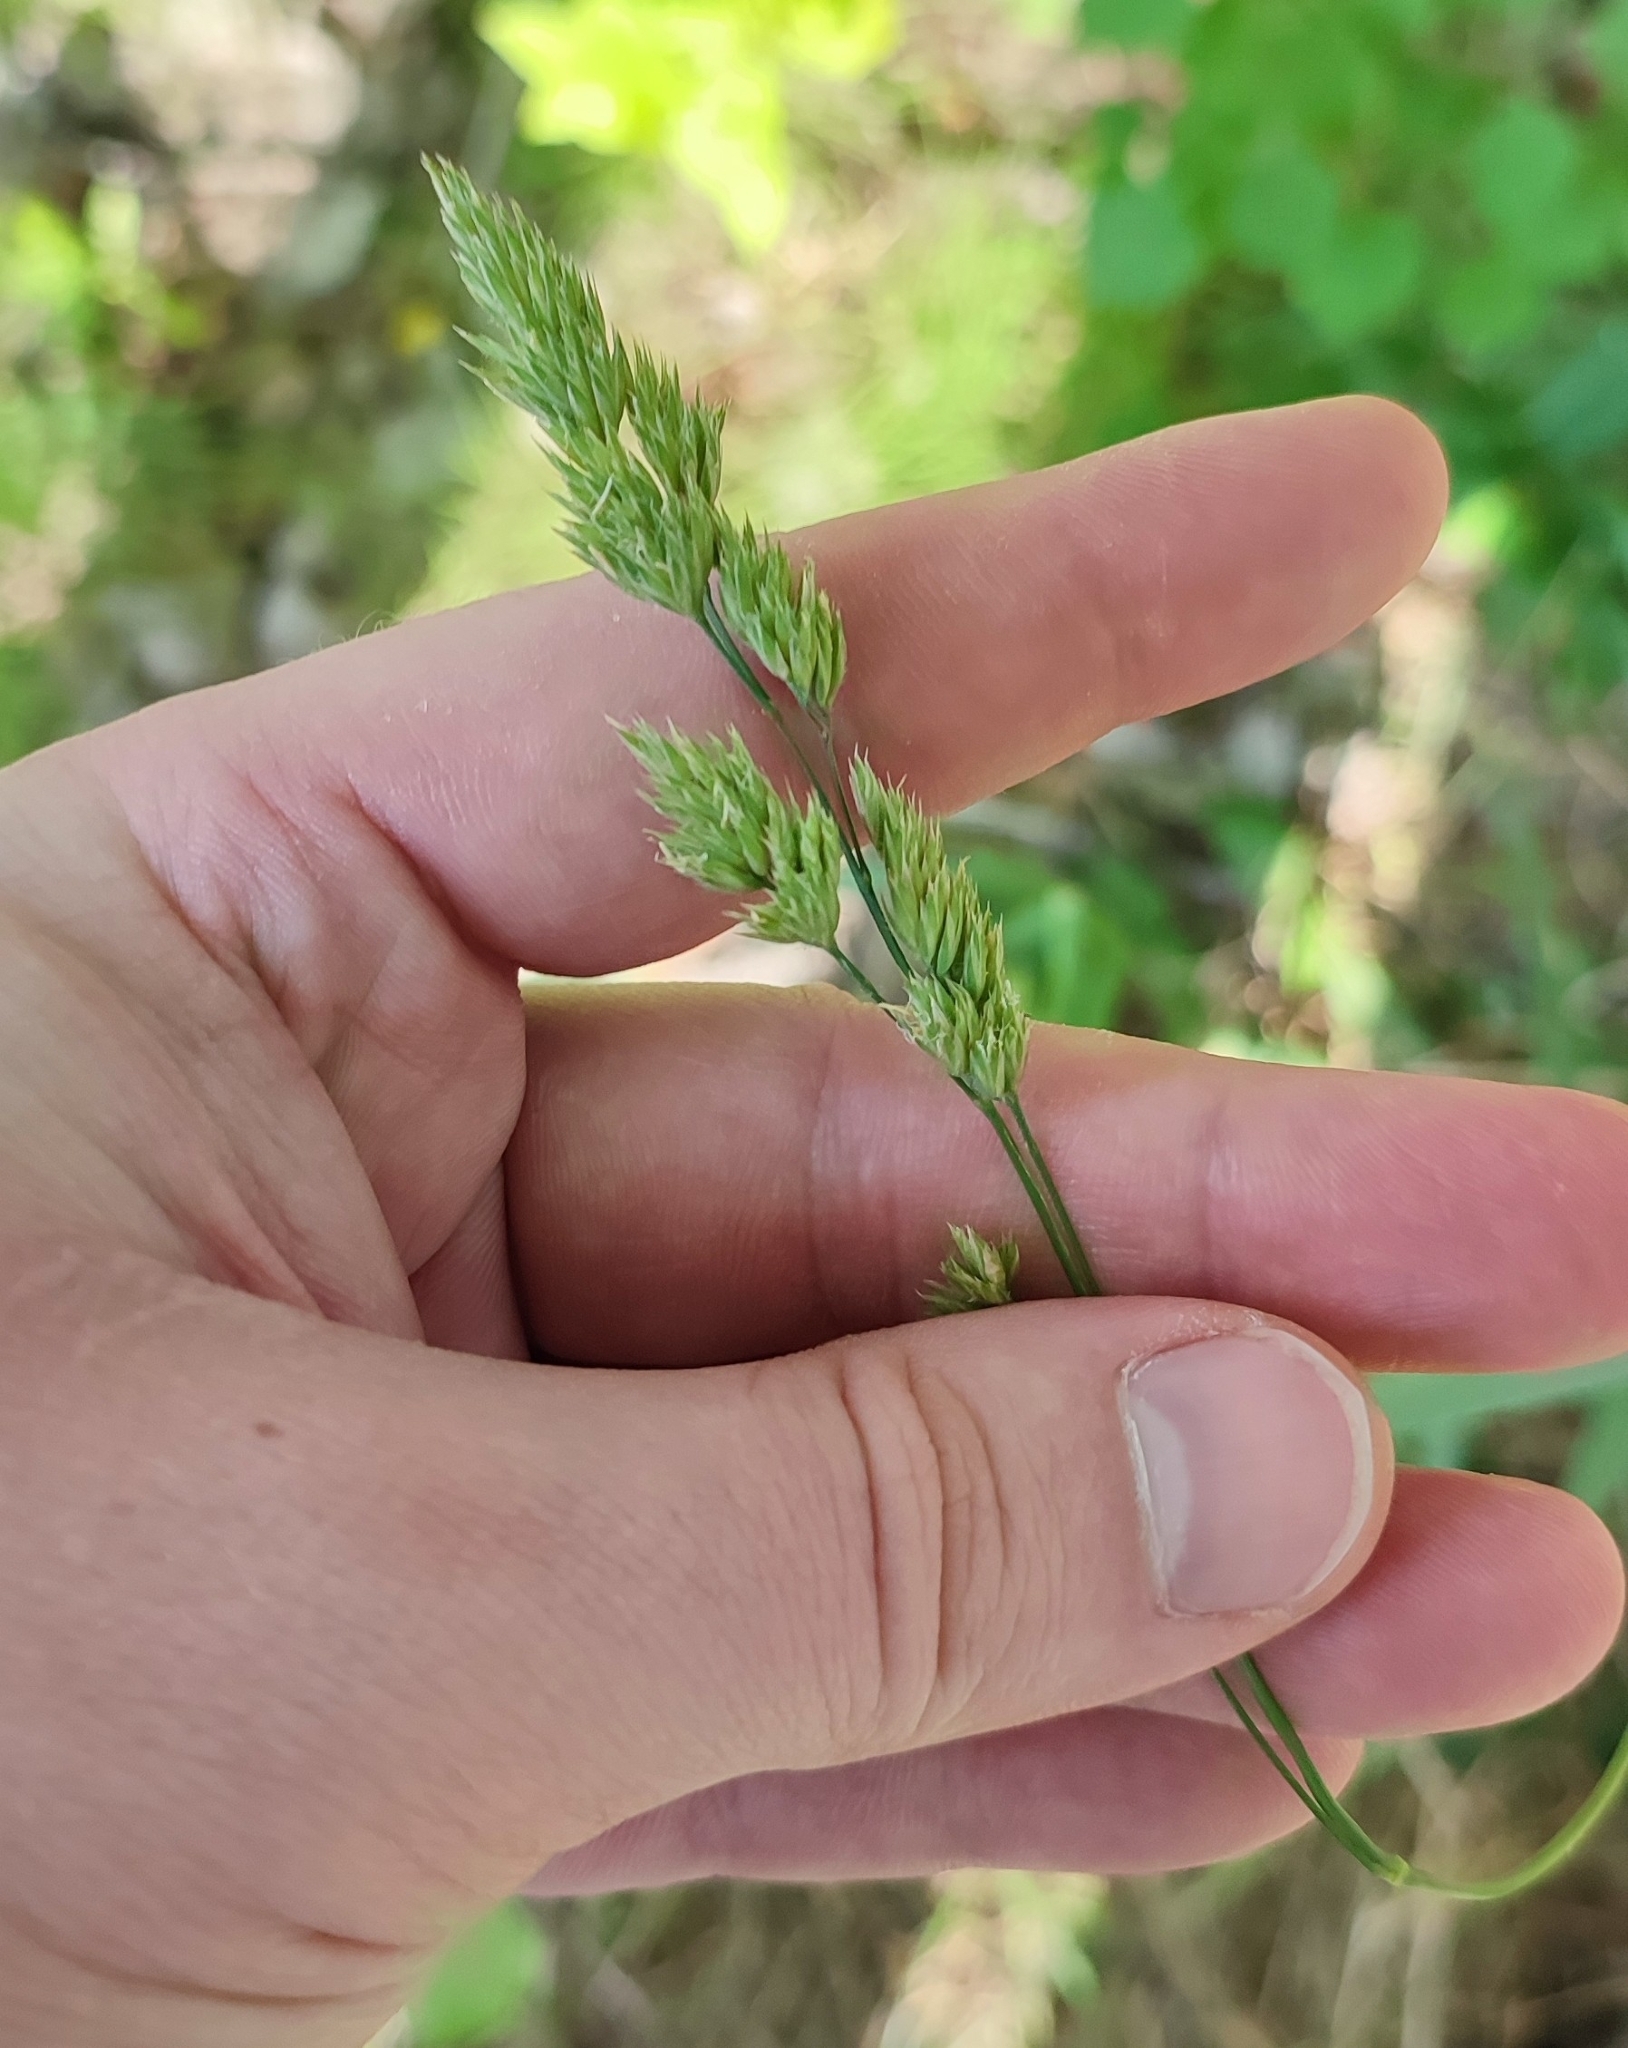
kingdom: Plantae
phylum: Tracheophyta
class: Liliopsida
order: Poales
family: Poaceae
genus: Dactylis
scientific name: Dactylis glomerata
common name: Orchardgrass
